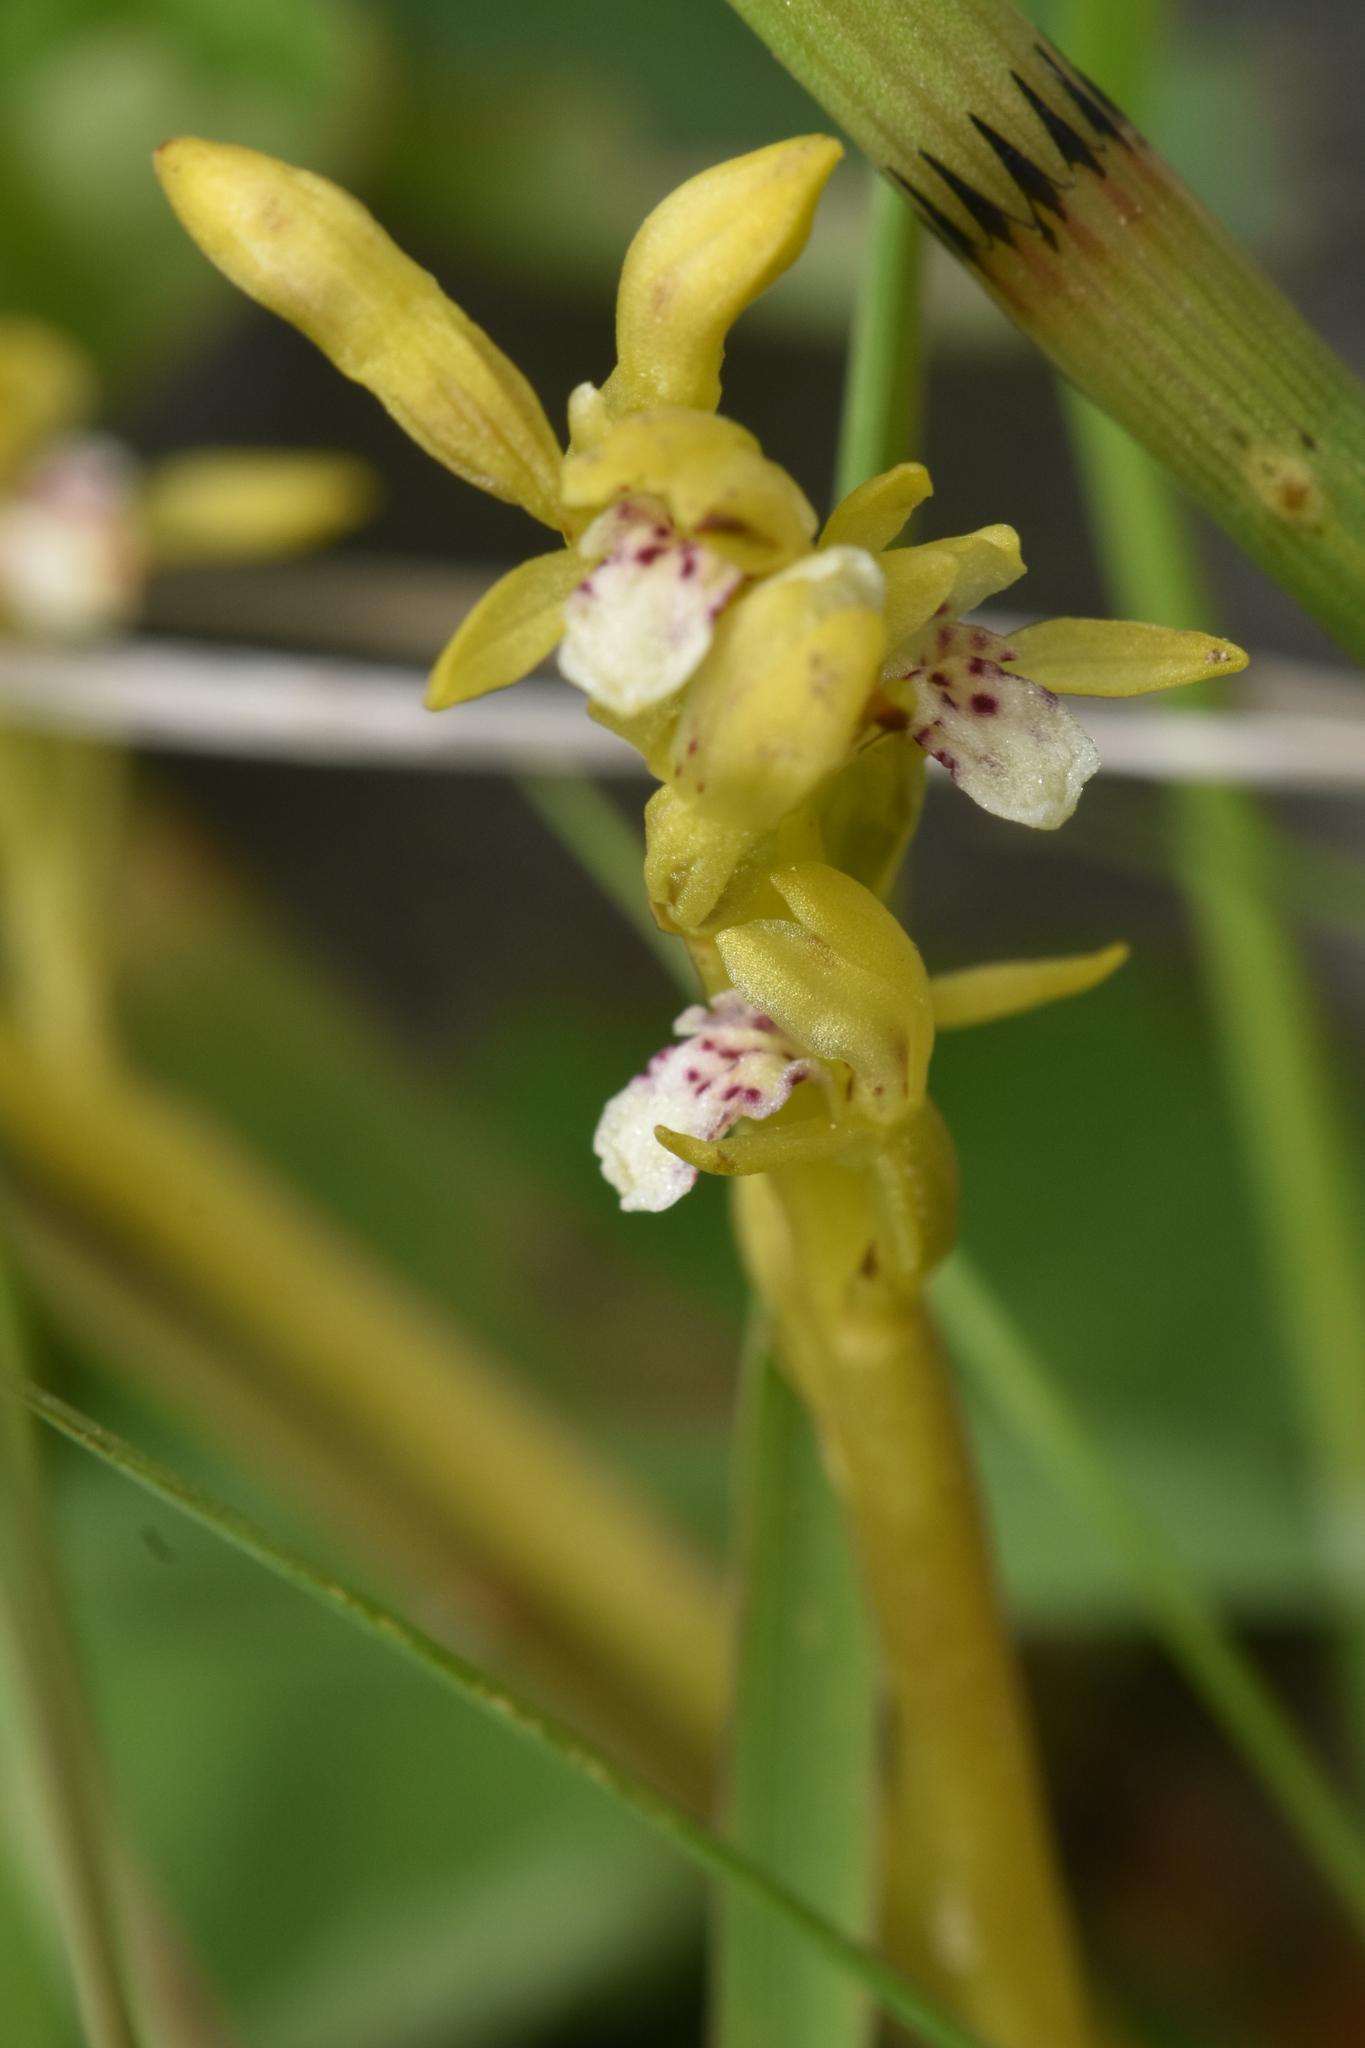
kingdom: Plantae
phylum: Tracheophyta
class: Liliopsida
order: Asparagales
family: Orchidaceae
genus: Corallorhiza
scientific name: Corallorhiza trifida
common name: Yellow coralroot
